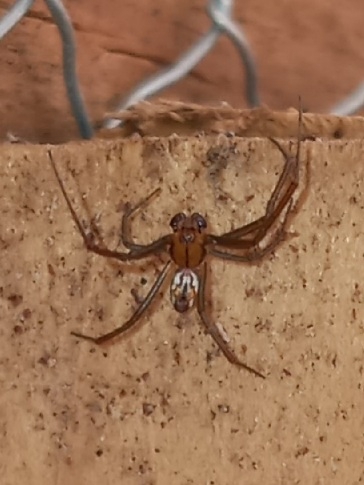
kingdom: Animalia
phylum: Arthropoda
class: Arachnida
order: Araneae
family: Araneidae
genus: Mecynogea
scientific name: Mecynogea lemniscata
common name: Orb weavers
